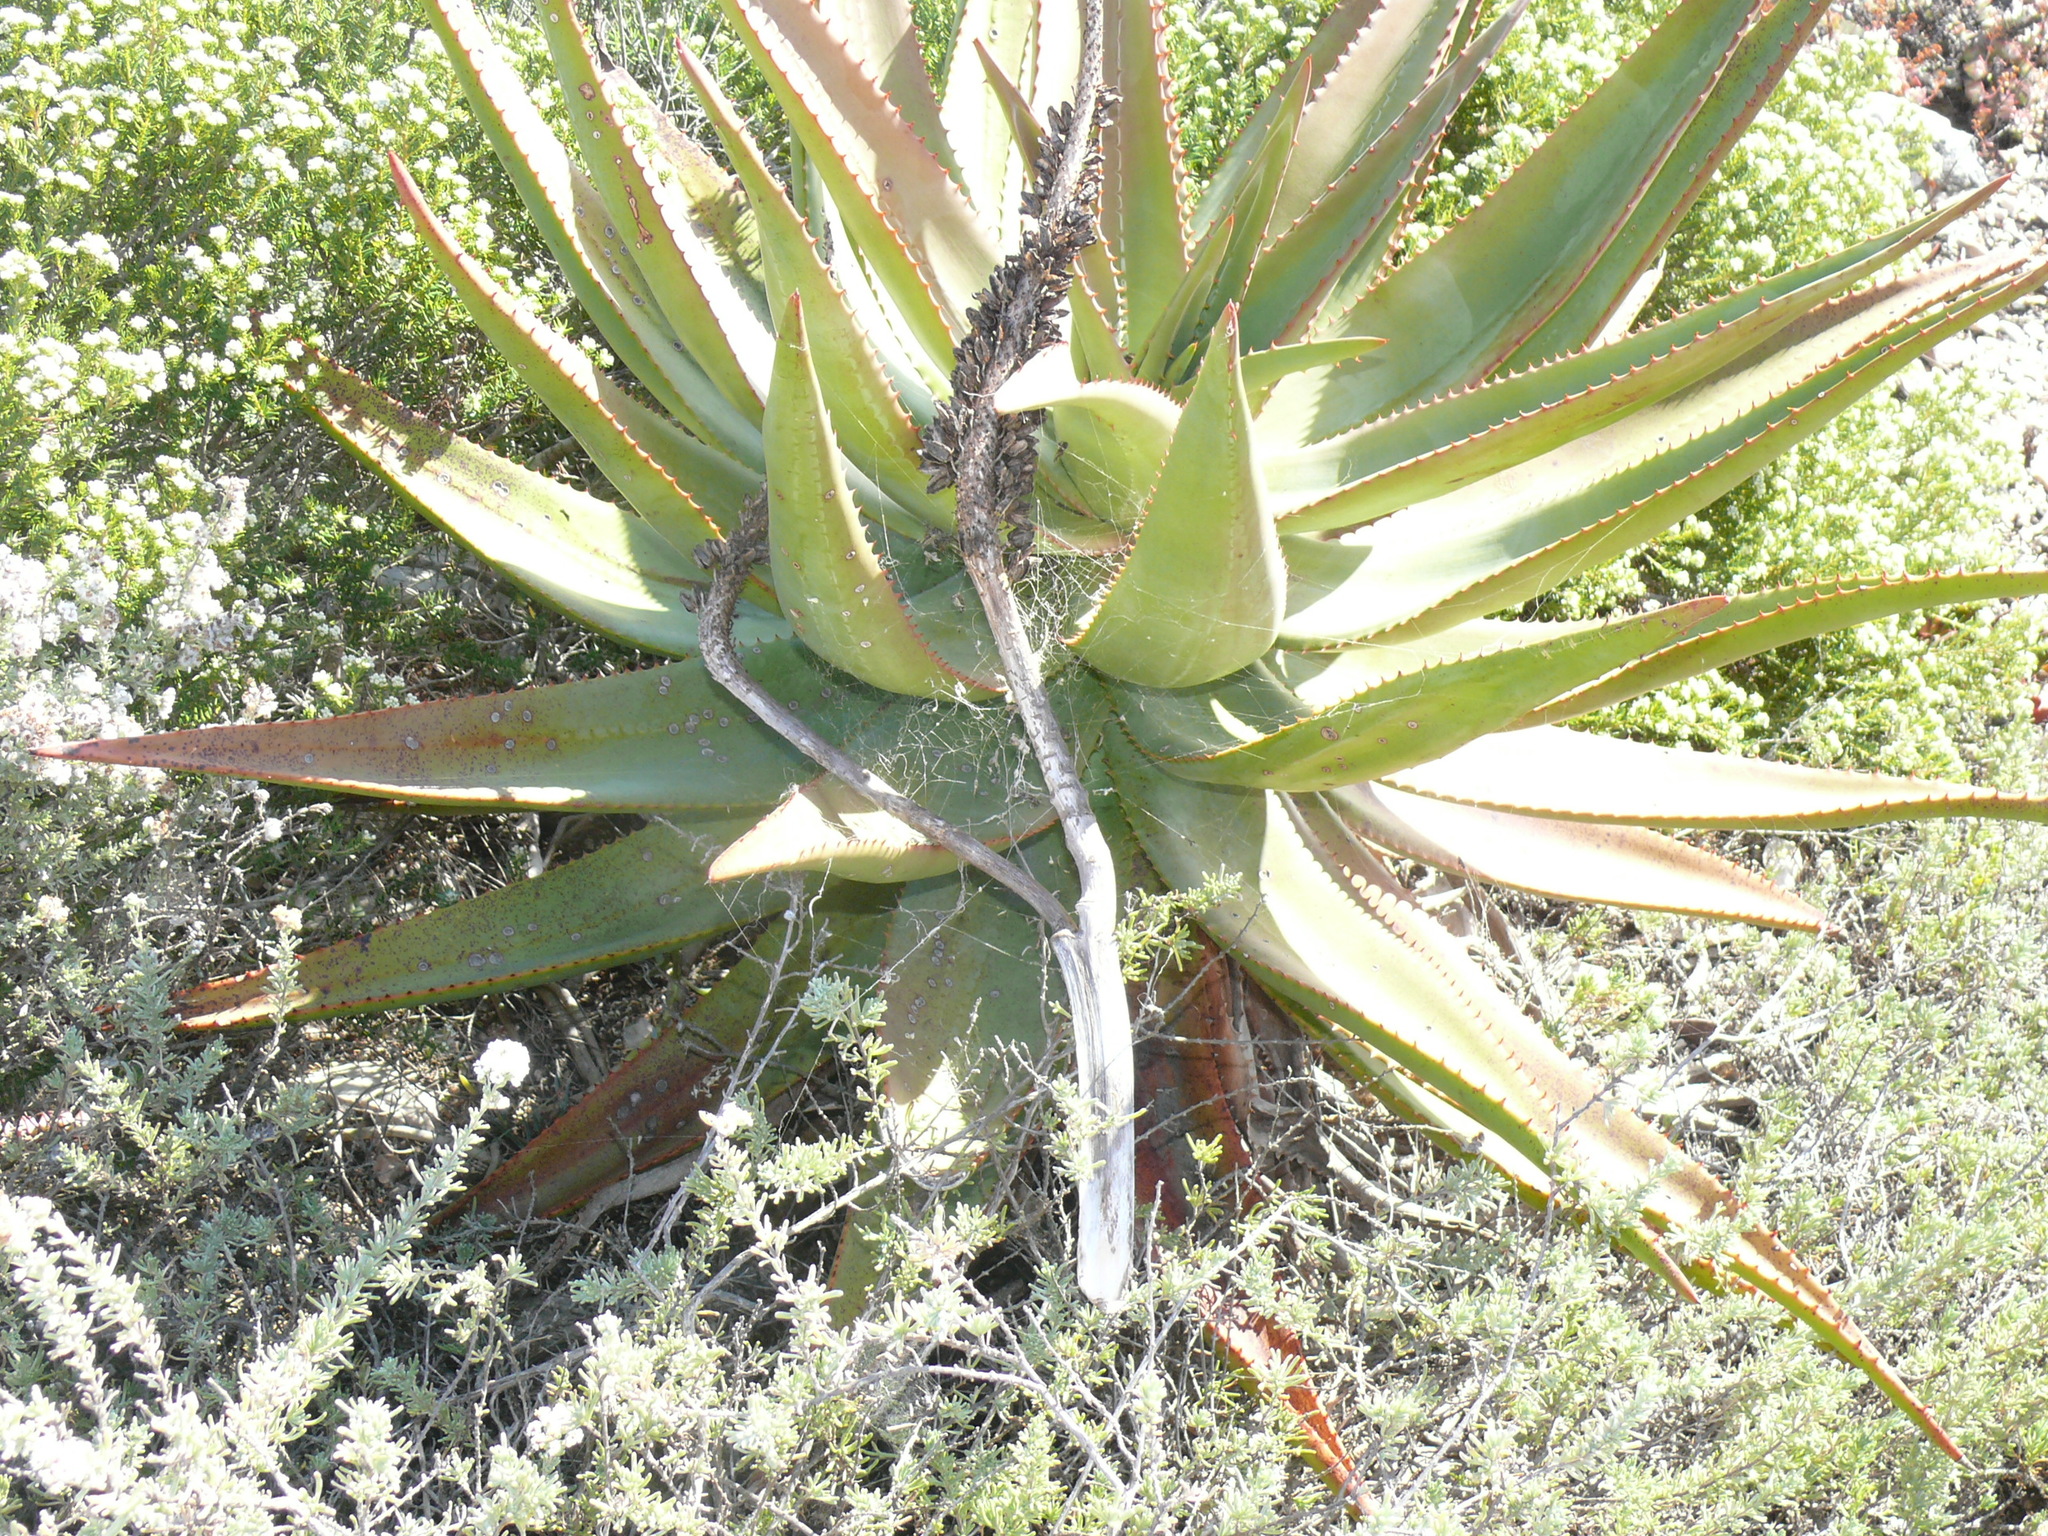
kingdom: Plantae
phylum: Tracheophyta
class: Liliopsida
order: Asparagales
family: Asphodelaceae
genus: Aloe
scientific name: Aloe ferox
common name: Bitter aloe
